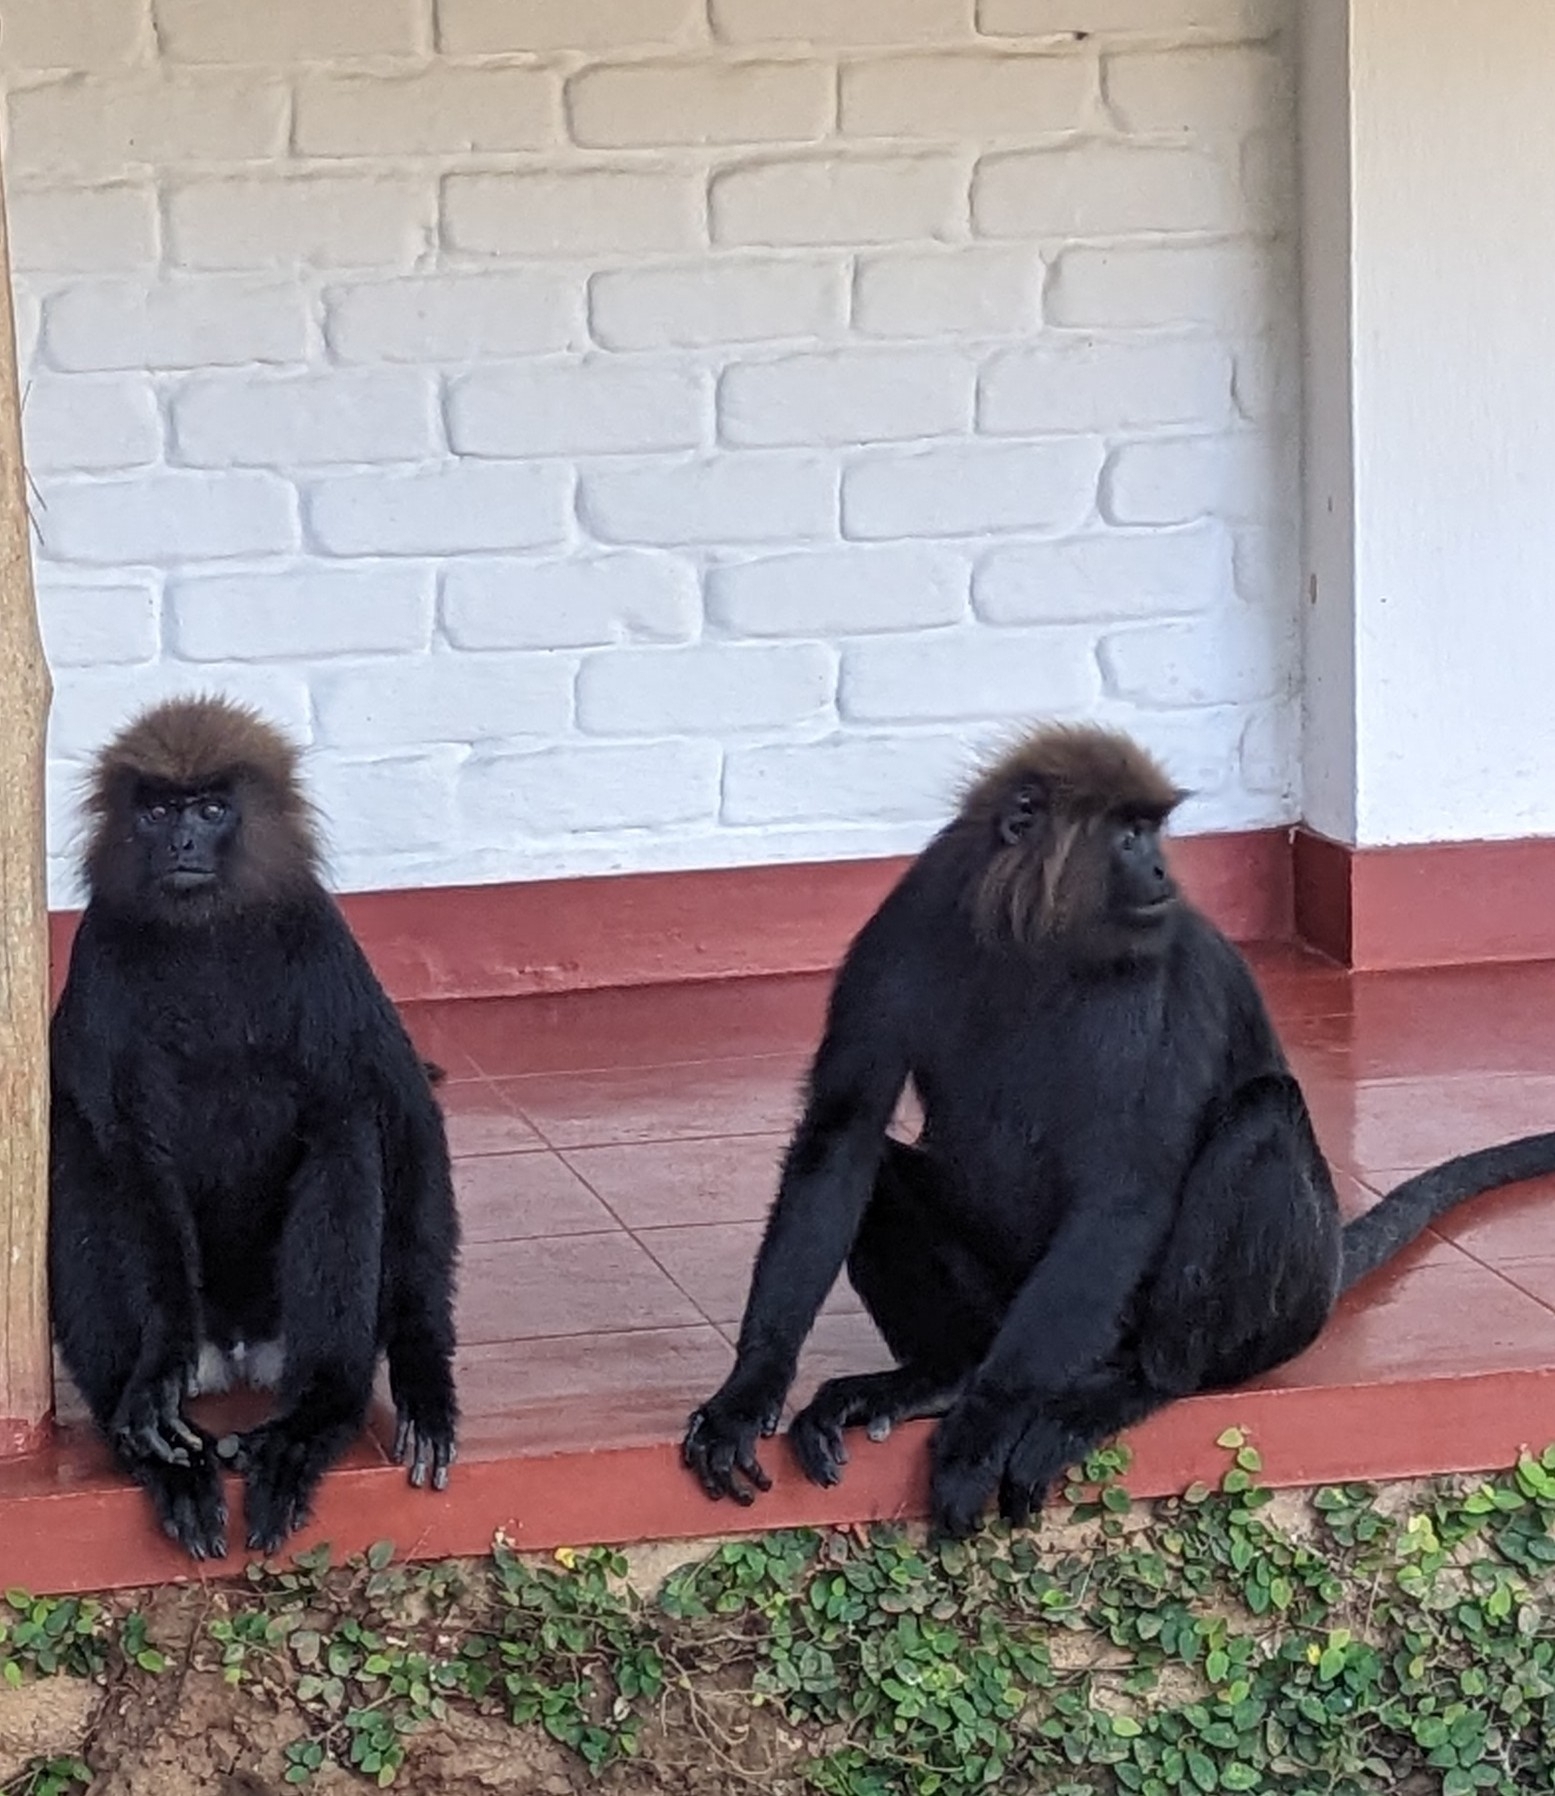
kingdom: Animalia
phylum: Chordata
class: Mammalia
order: Primates
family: Cercopithecidae
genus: Semnopithecus
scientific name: Semnopithecus johnii
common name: Nilgiri langur
